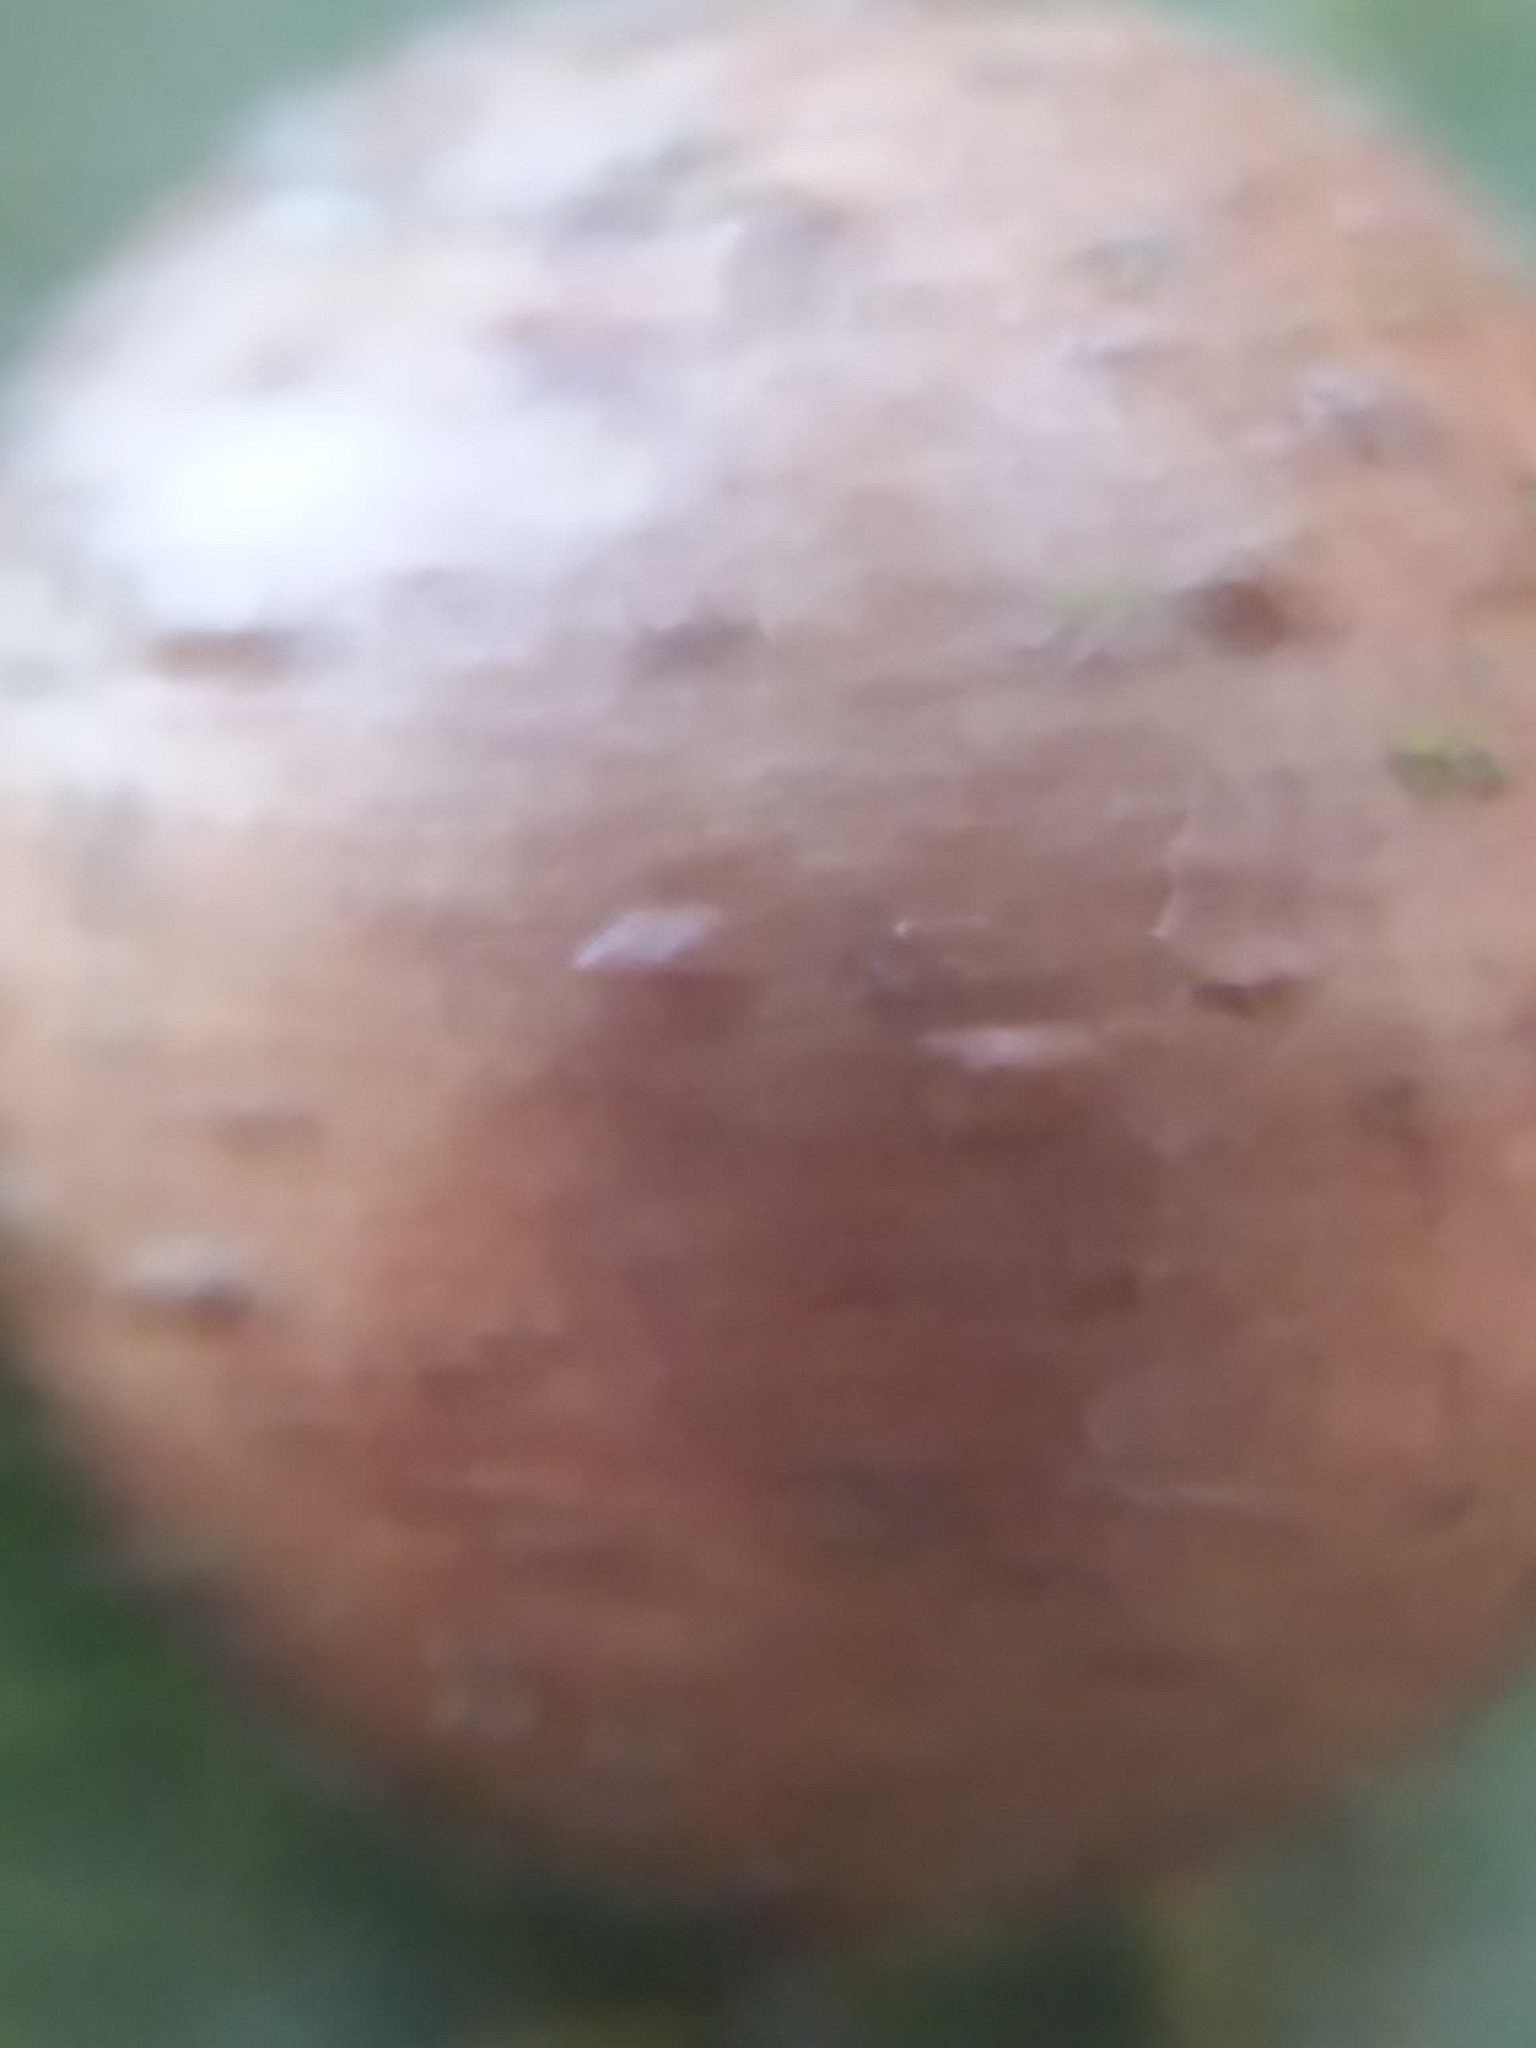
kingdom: Animalia
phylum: Arthropoda
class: Insecta
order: Hymenoptera
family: Cynipidae
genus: Belonocnema
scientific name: Belonocnema treatae
